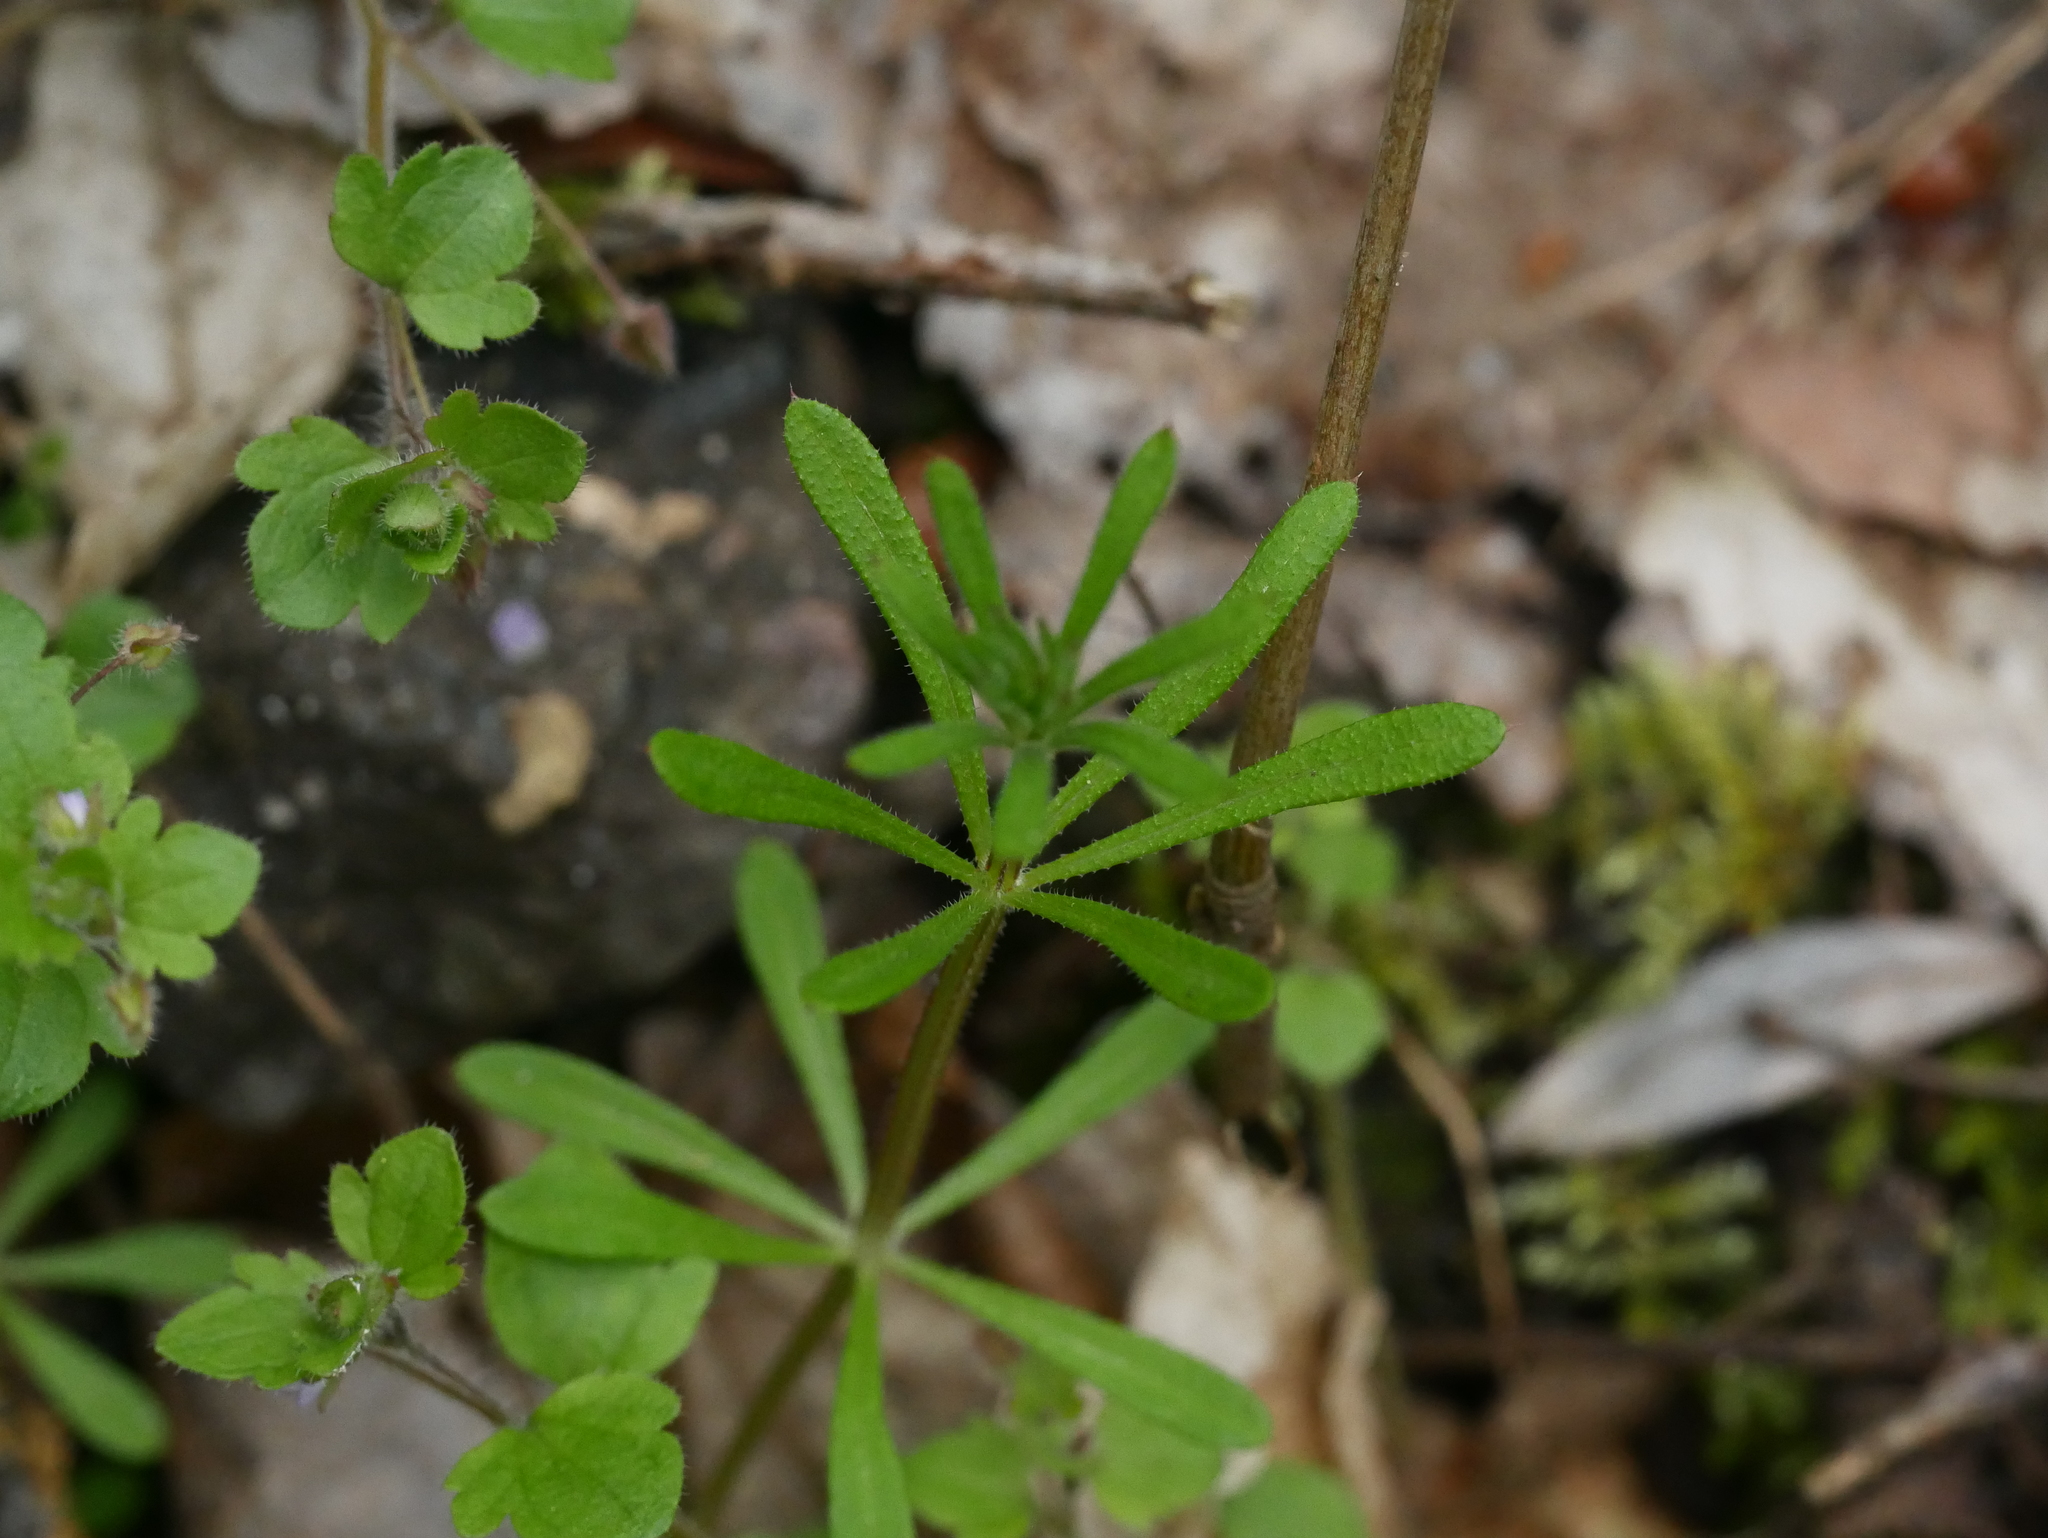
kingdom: Plantae
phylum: Tracheophyta
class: Magnoliopsida
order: Gentianales
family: Rubiaceae
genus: Galium
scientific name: Galium aparine
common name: Cleavers
